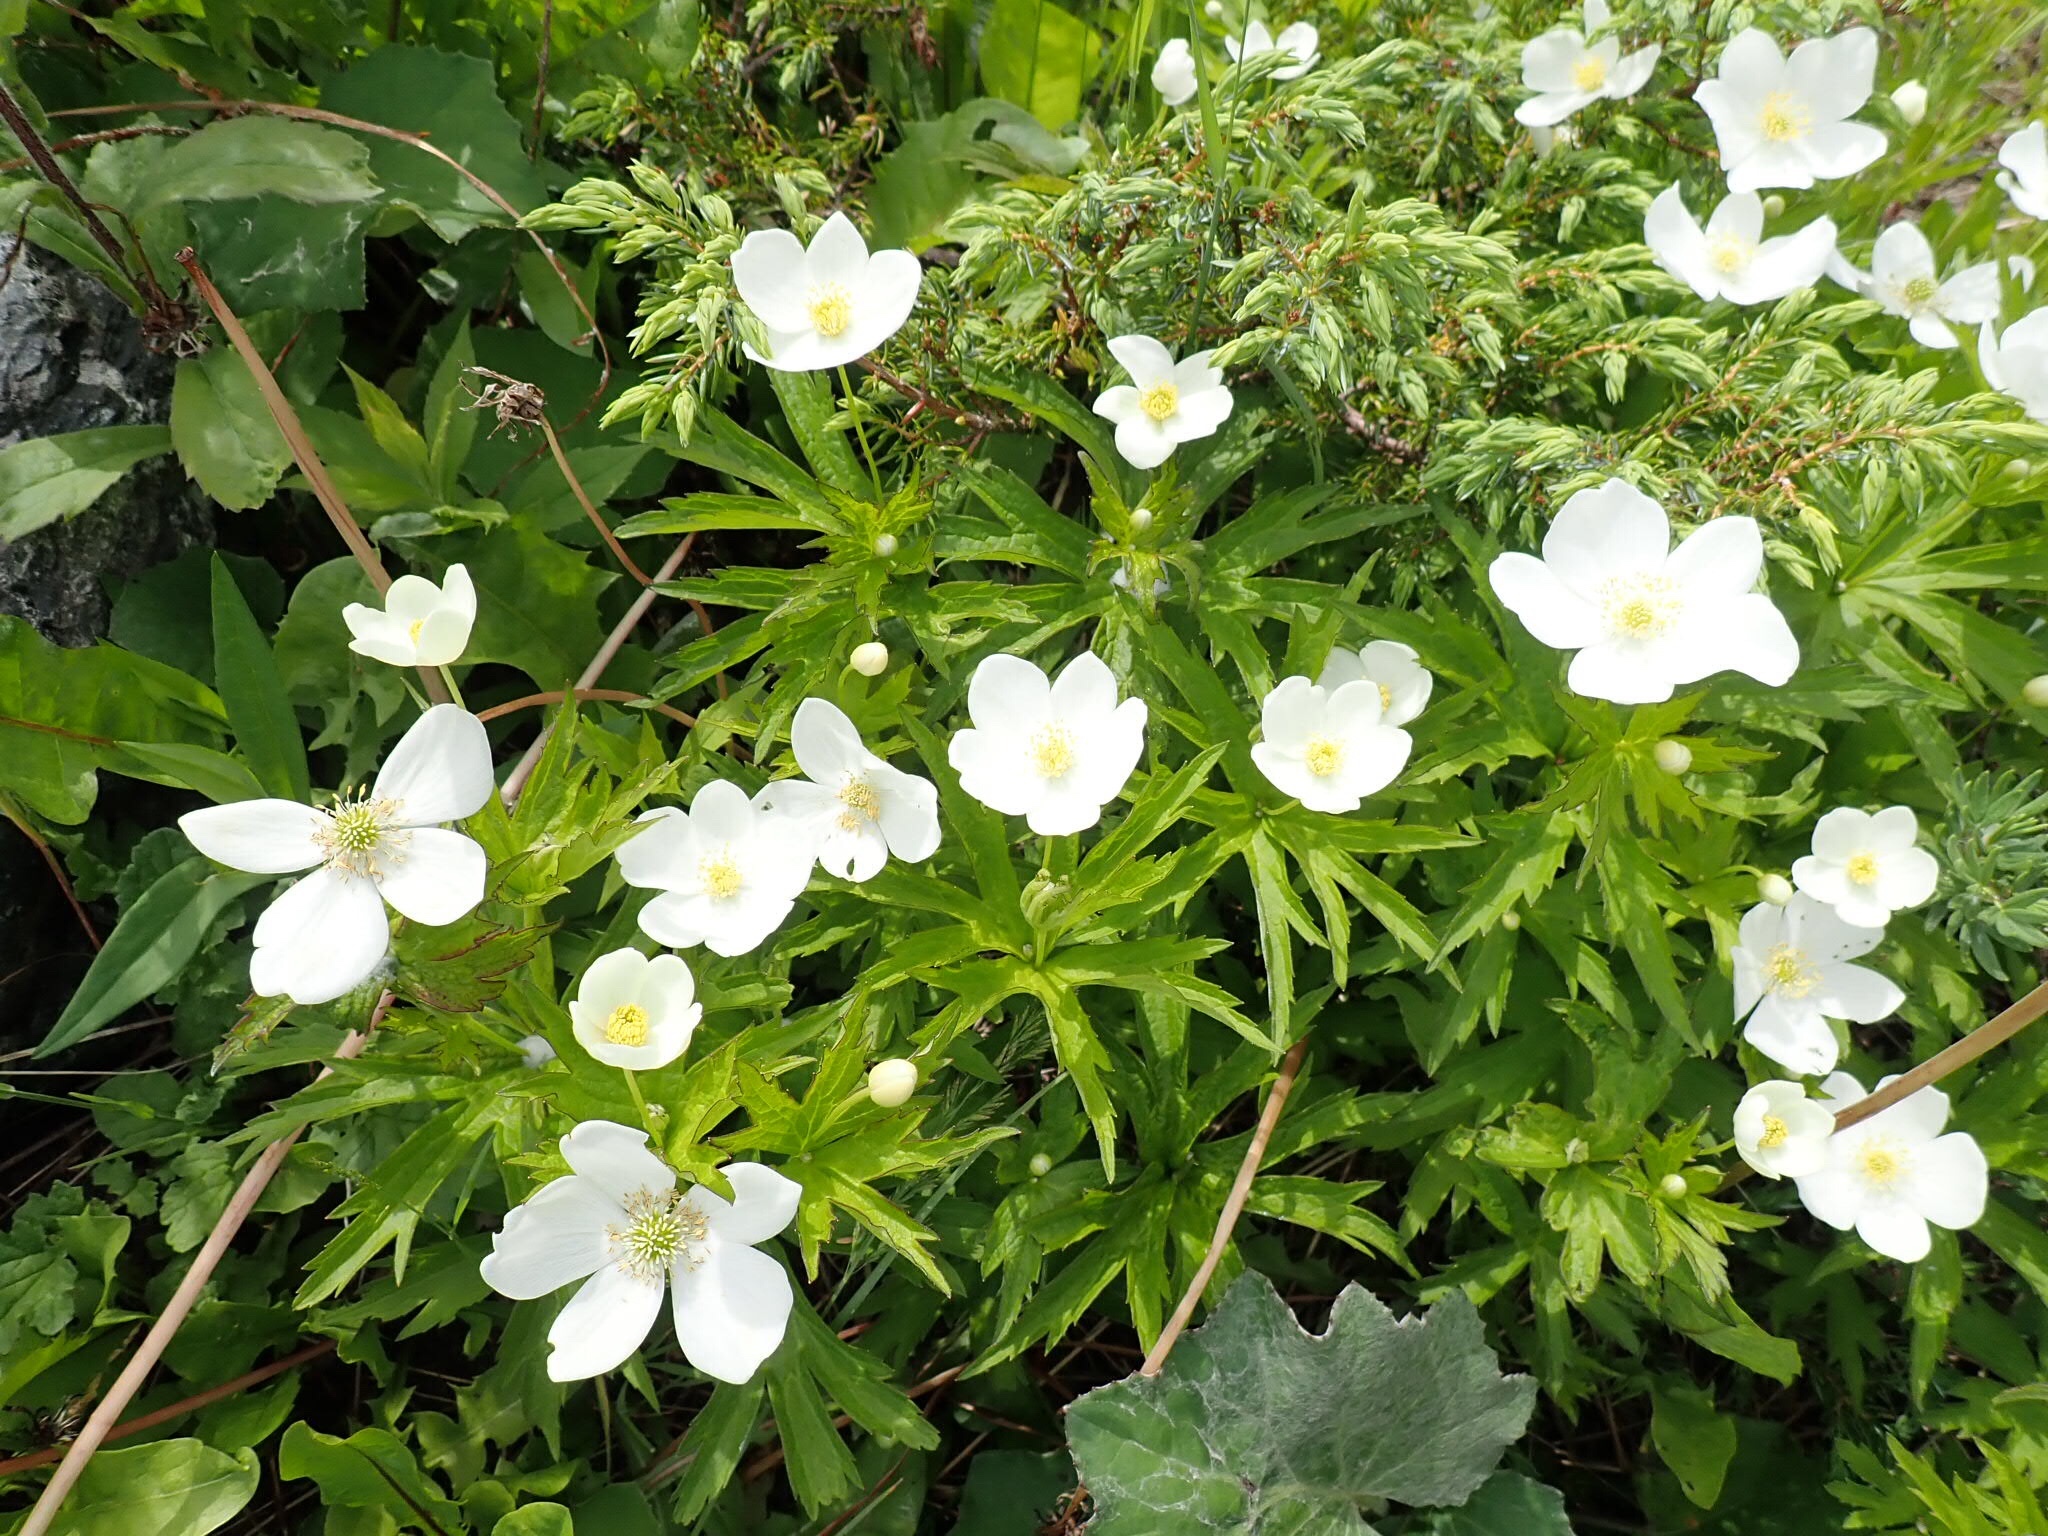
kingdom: Plantae
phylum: Tracheophyta
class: Magnoliopsida
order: Ranunculales
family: Ranunculaceae
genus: Anemonastrum
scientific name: Anemonastrum canadense
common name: Canada anemone
